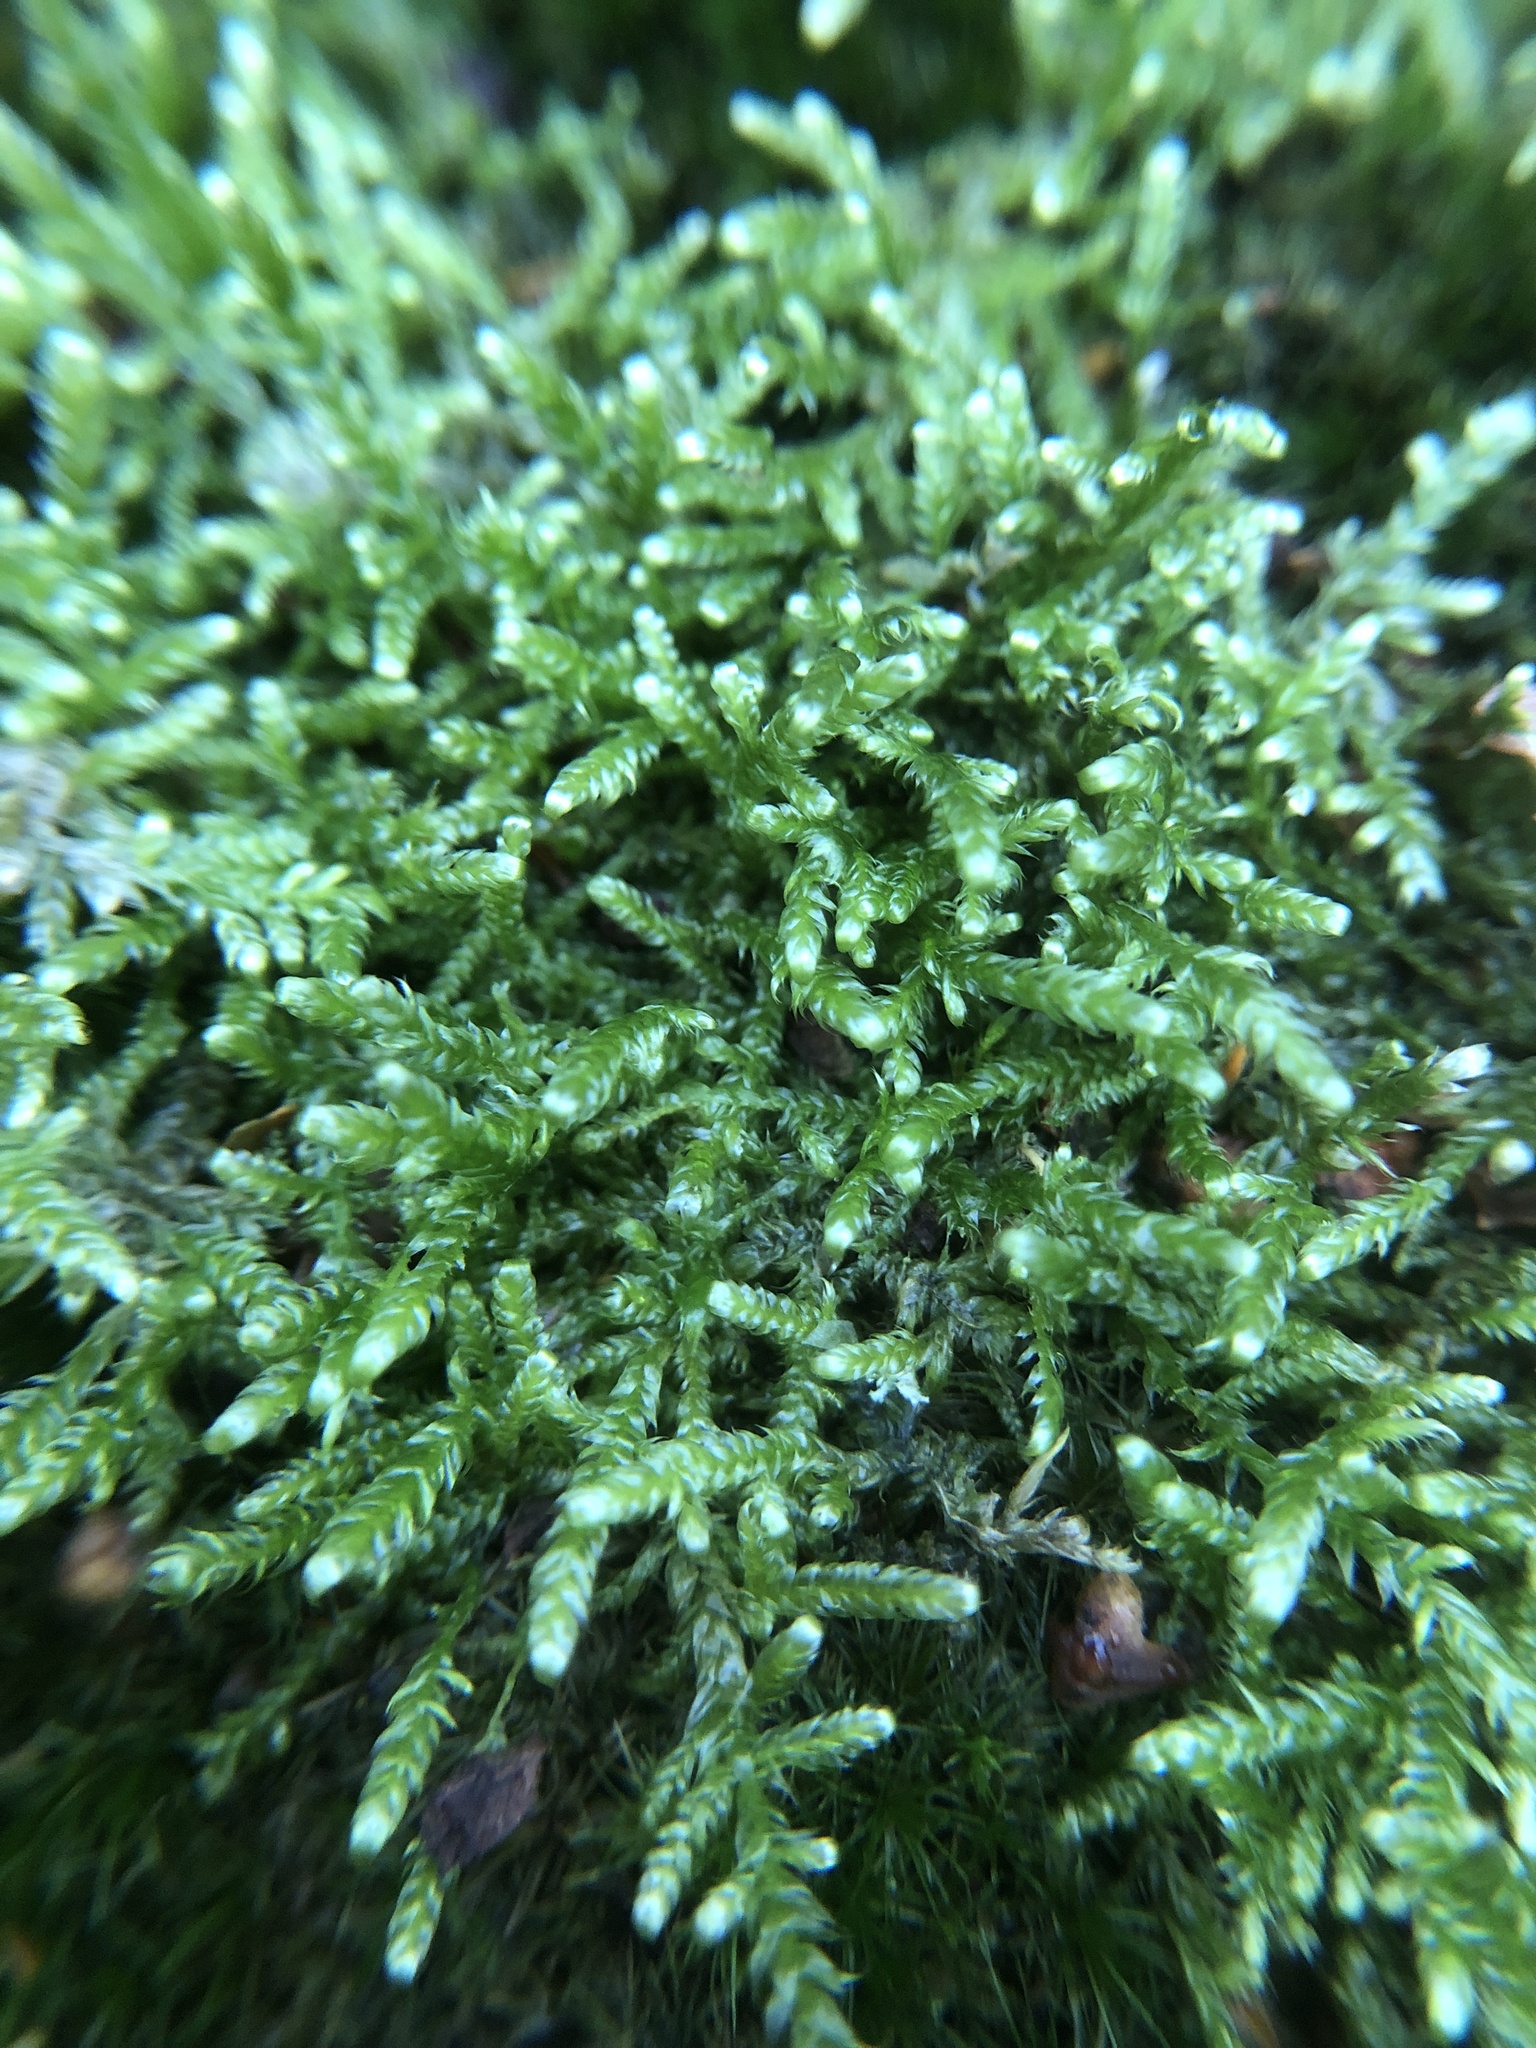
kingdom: Plantae
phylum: Bryophyta
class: Bryopsida
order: Hypnales
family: Hypnaceae
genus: Hypnum
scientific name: Hypnum jutlandicum
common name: Heath plait-moss
